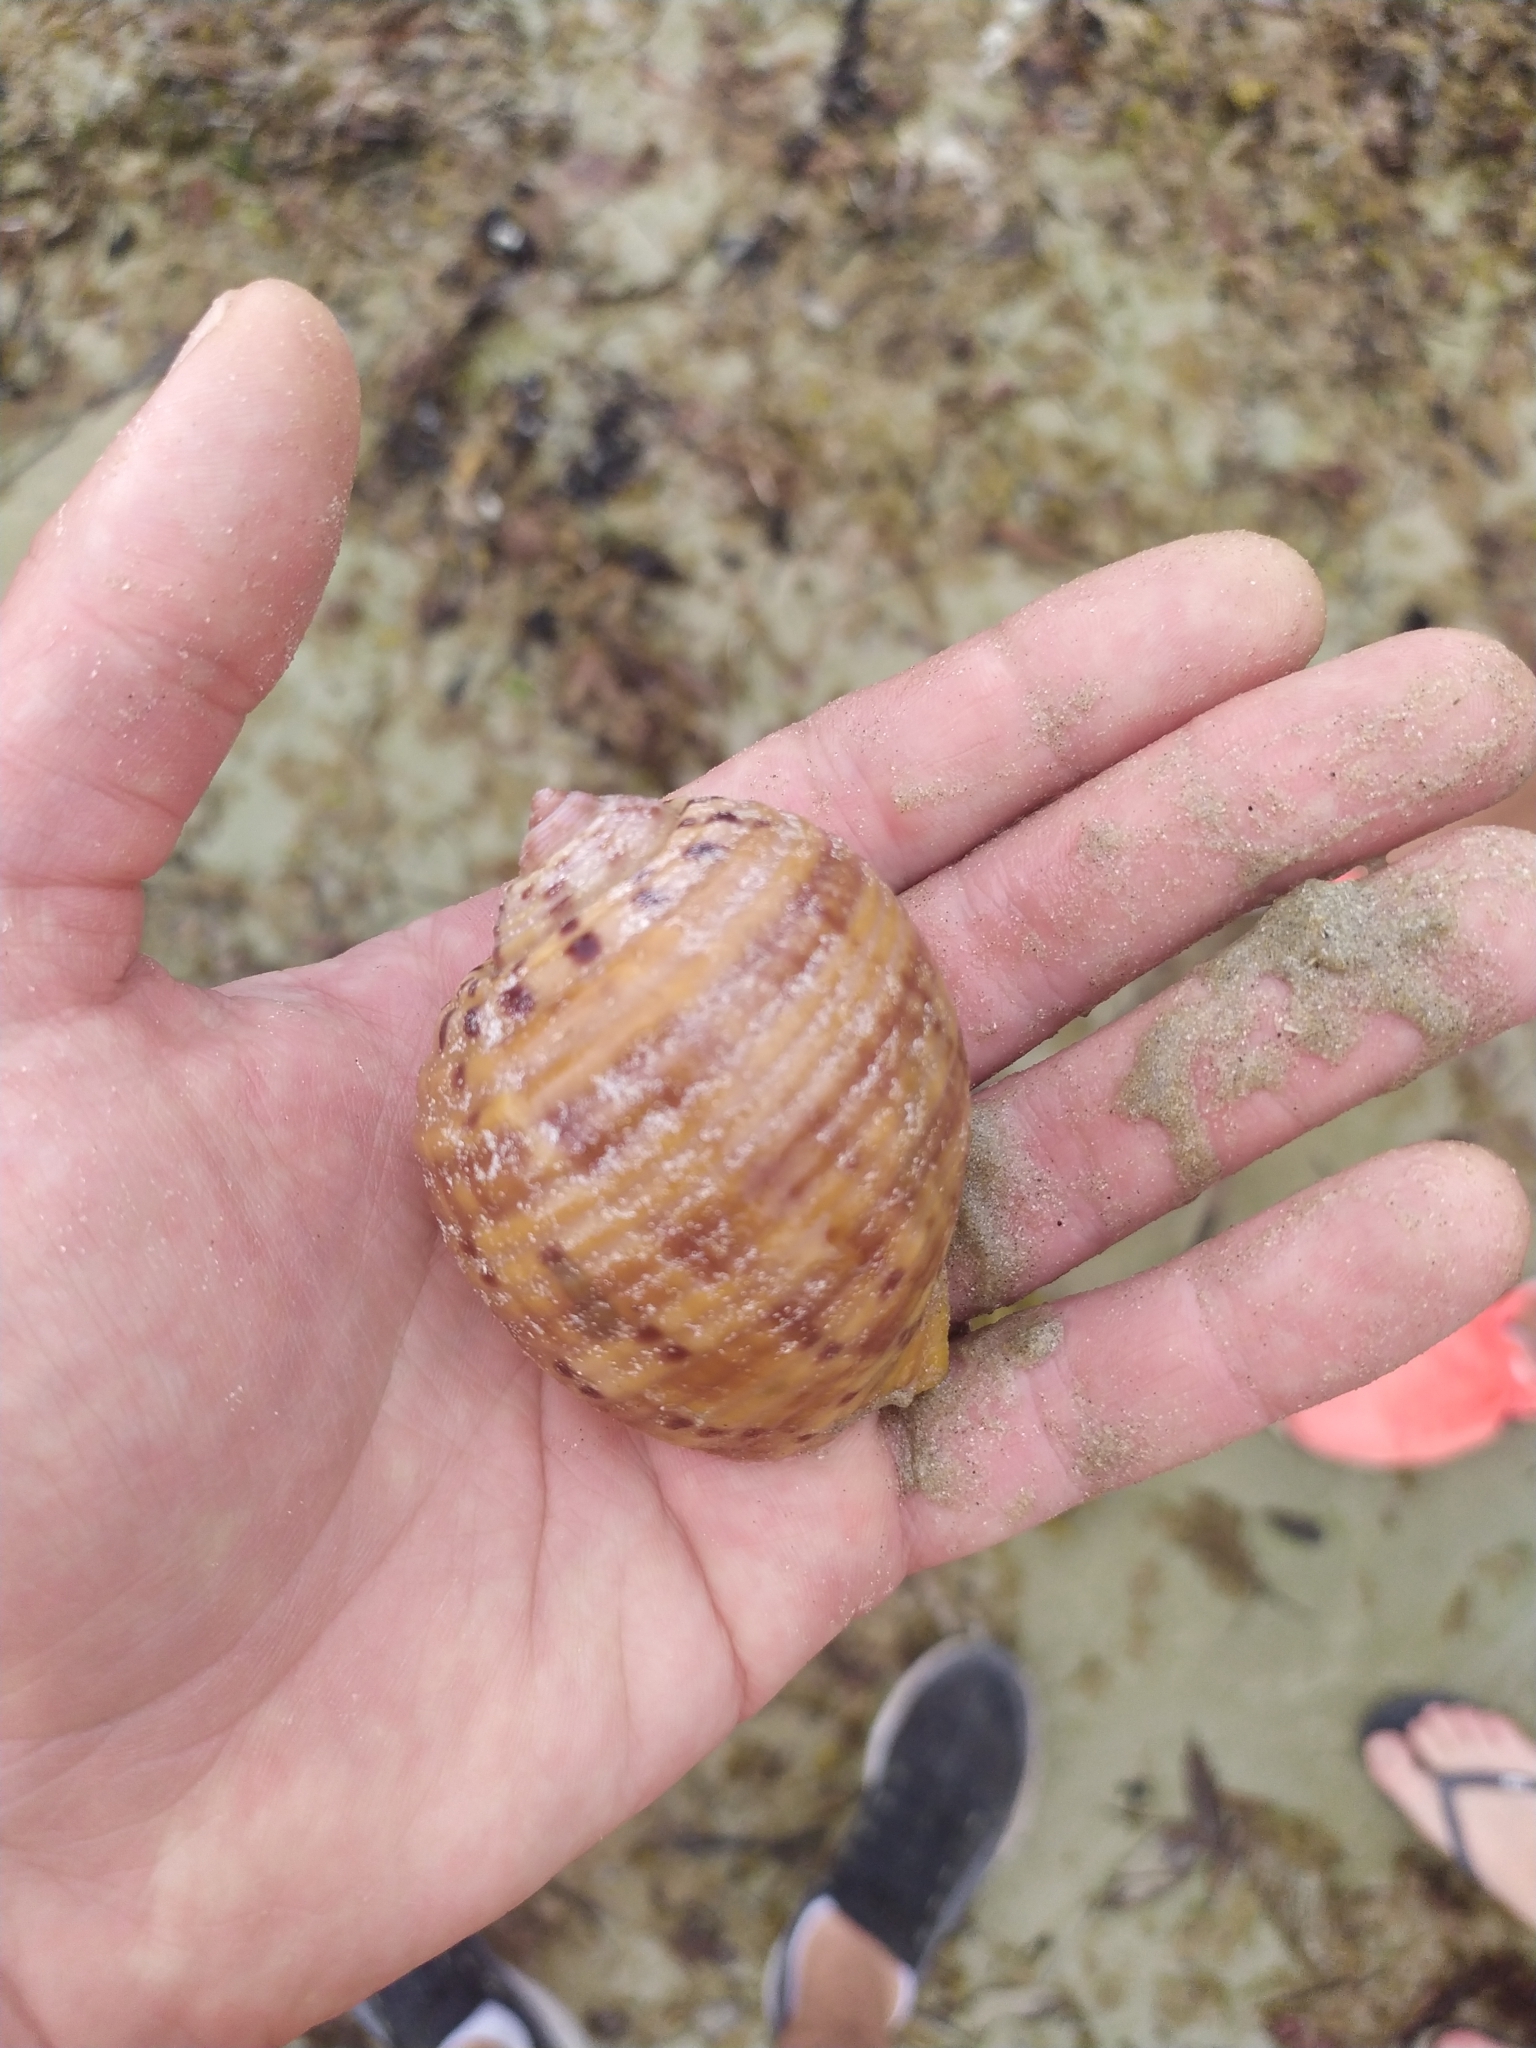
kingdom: Animalia
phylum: Mollusca
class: Gastropoda
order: Littorinimorpha
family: Tonnidae
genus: Tonna
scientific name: Tonna tankervillii
